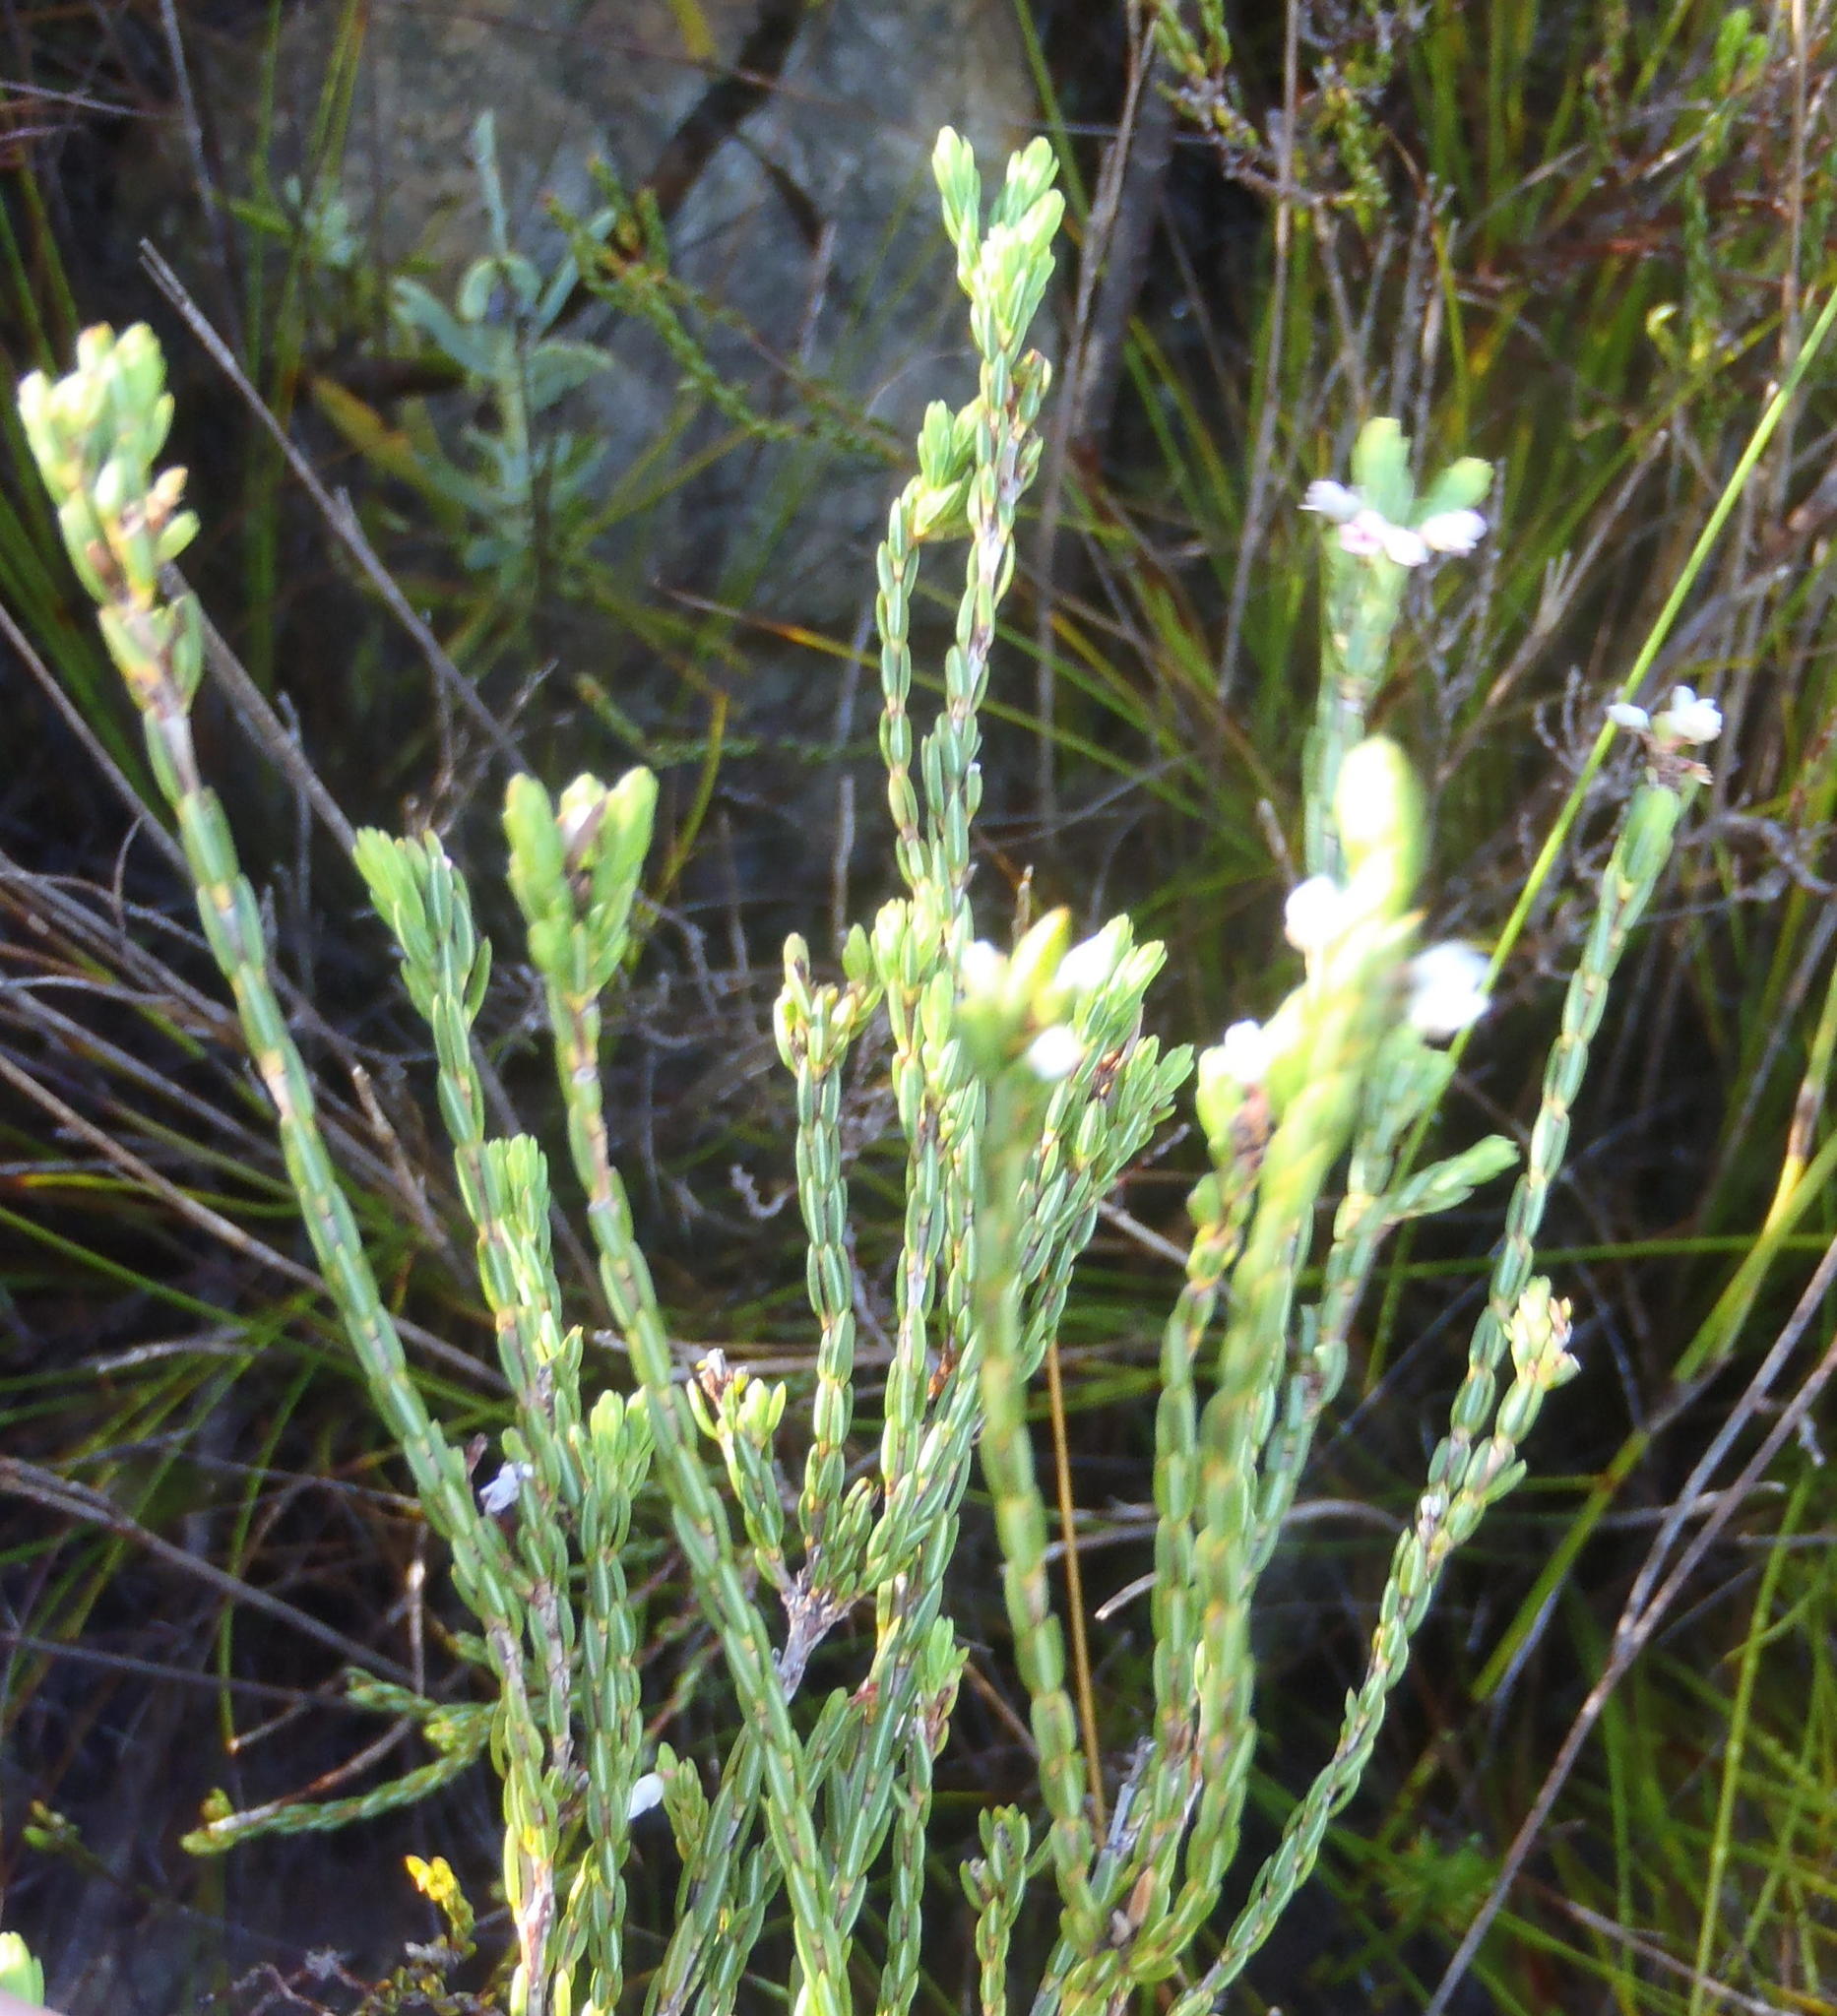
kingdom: Plantae
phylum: Tracheophyta
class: Magnoliopsida
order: Ericales
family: Ericaceae
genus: Erica
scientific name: Erica articularis
